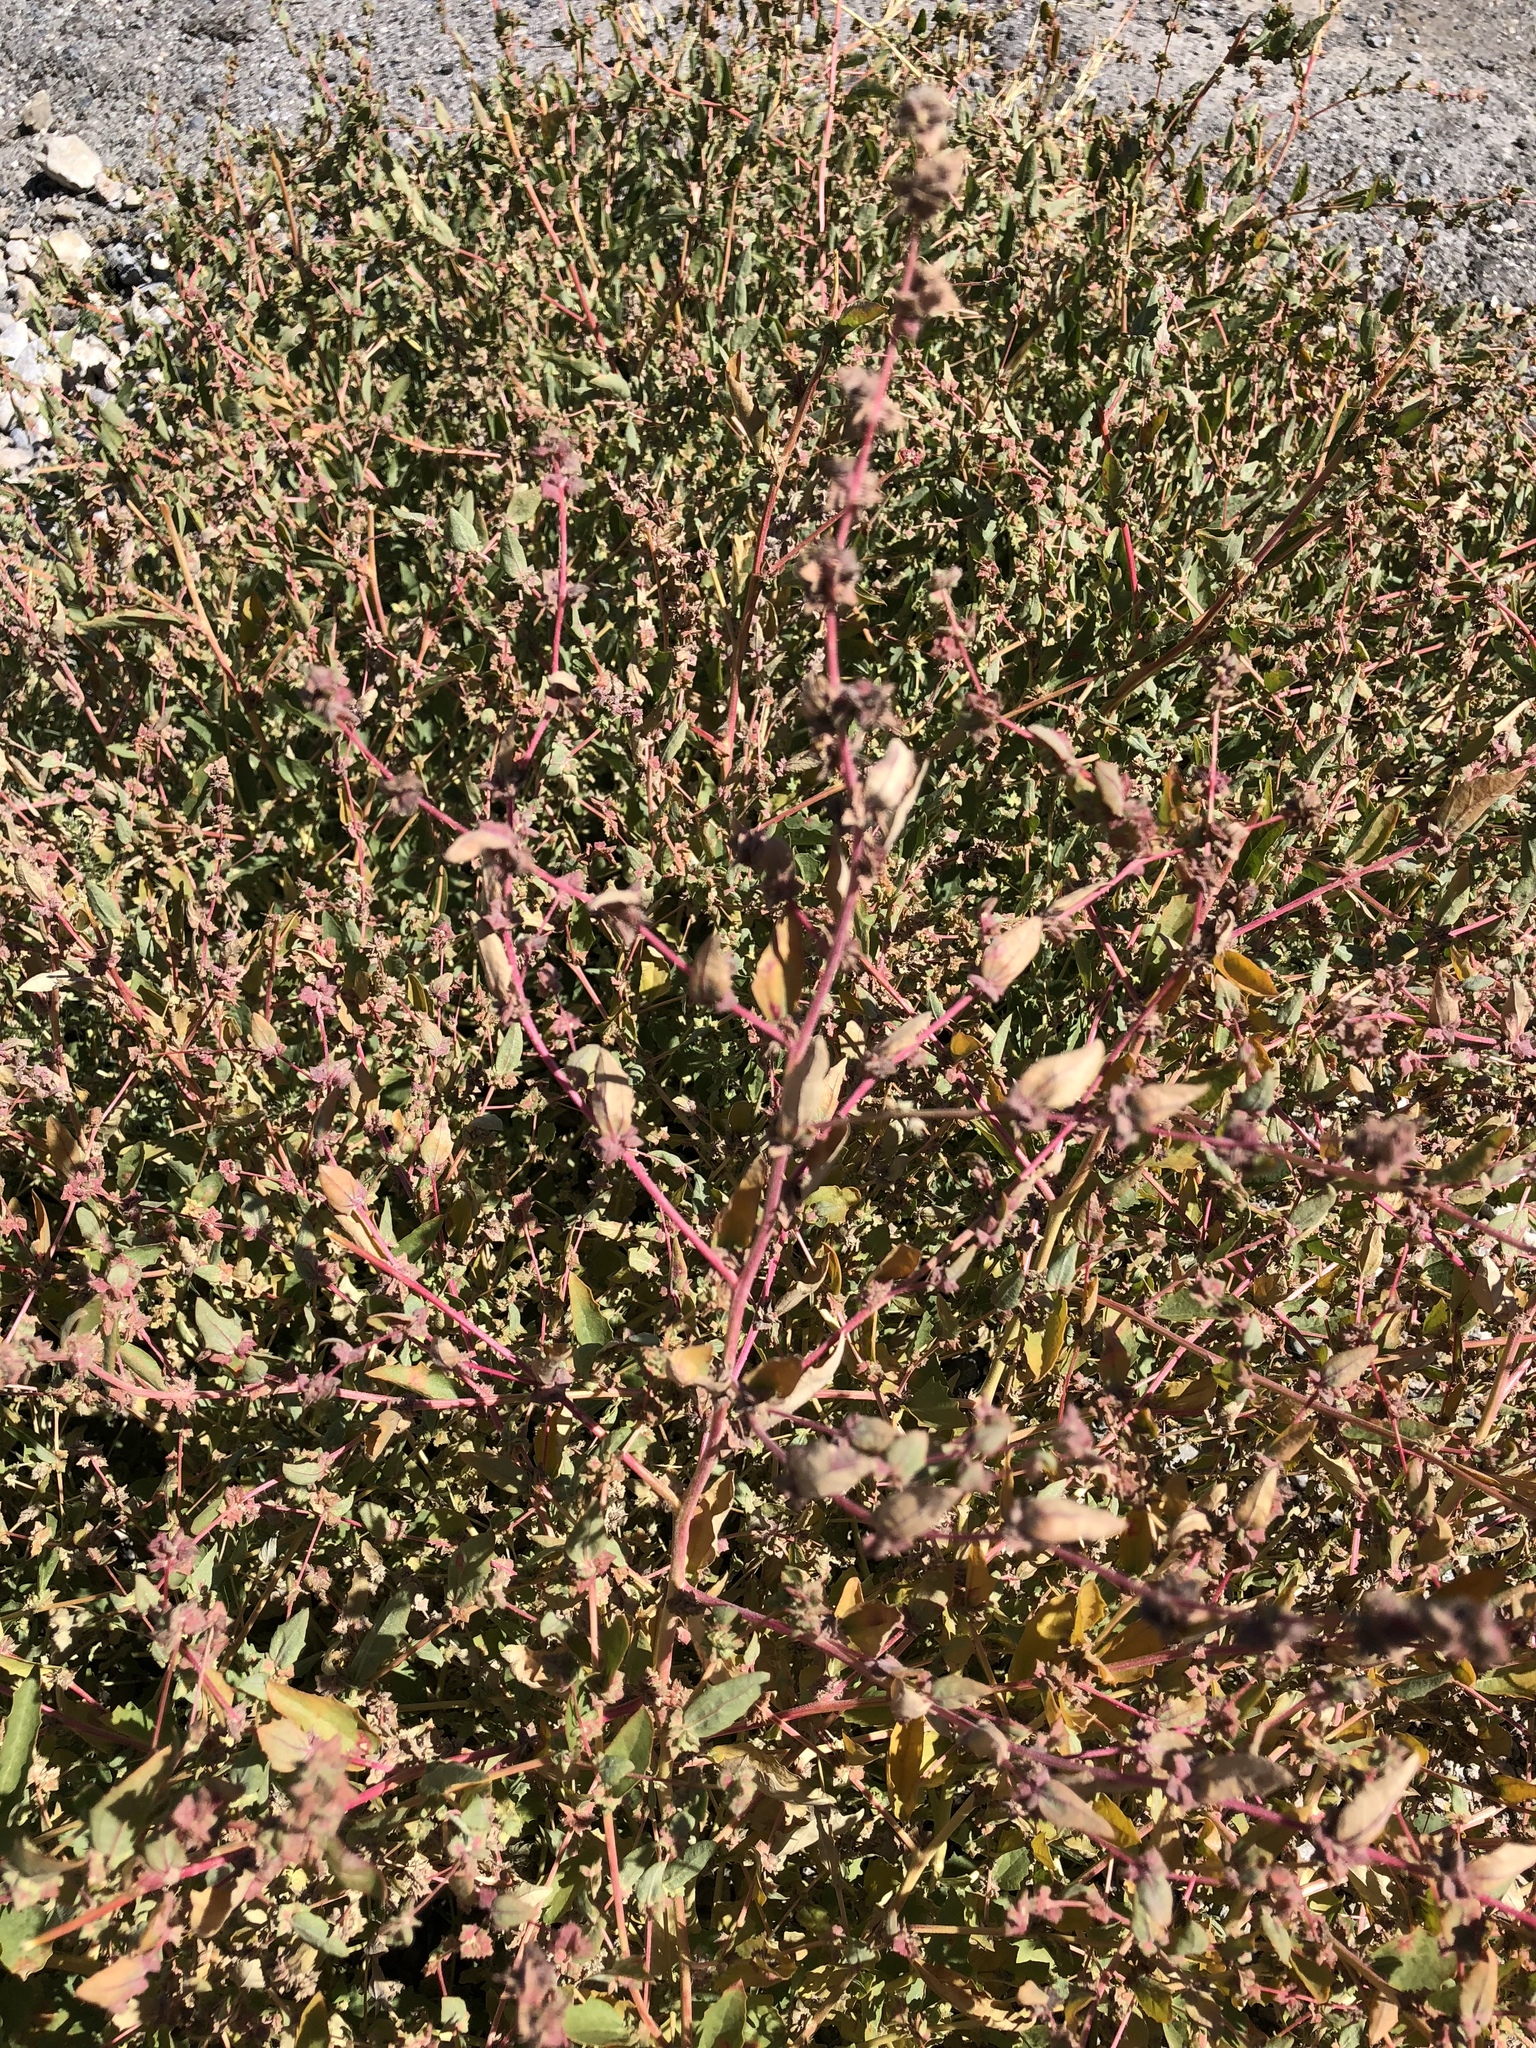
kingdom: Plantae
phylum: Tracheophyta
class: Magnoliopsida
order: Caryophyllales
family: Amaranthaceae
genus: Atriplex
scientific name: Atriplex prostrata
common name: Spear-leaved orache
